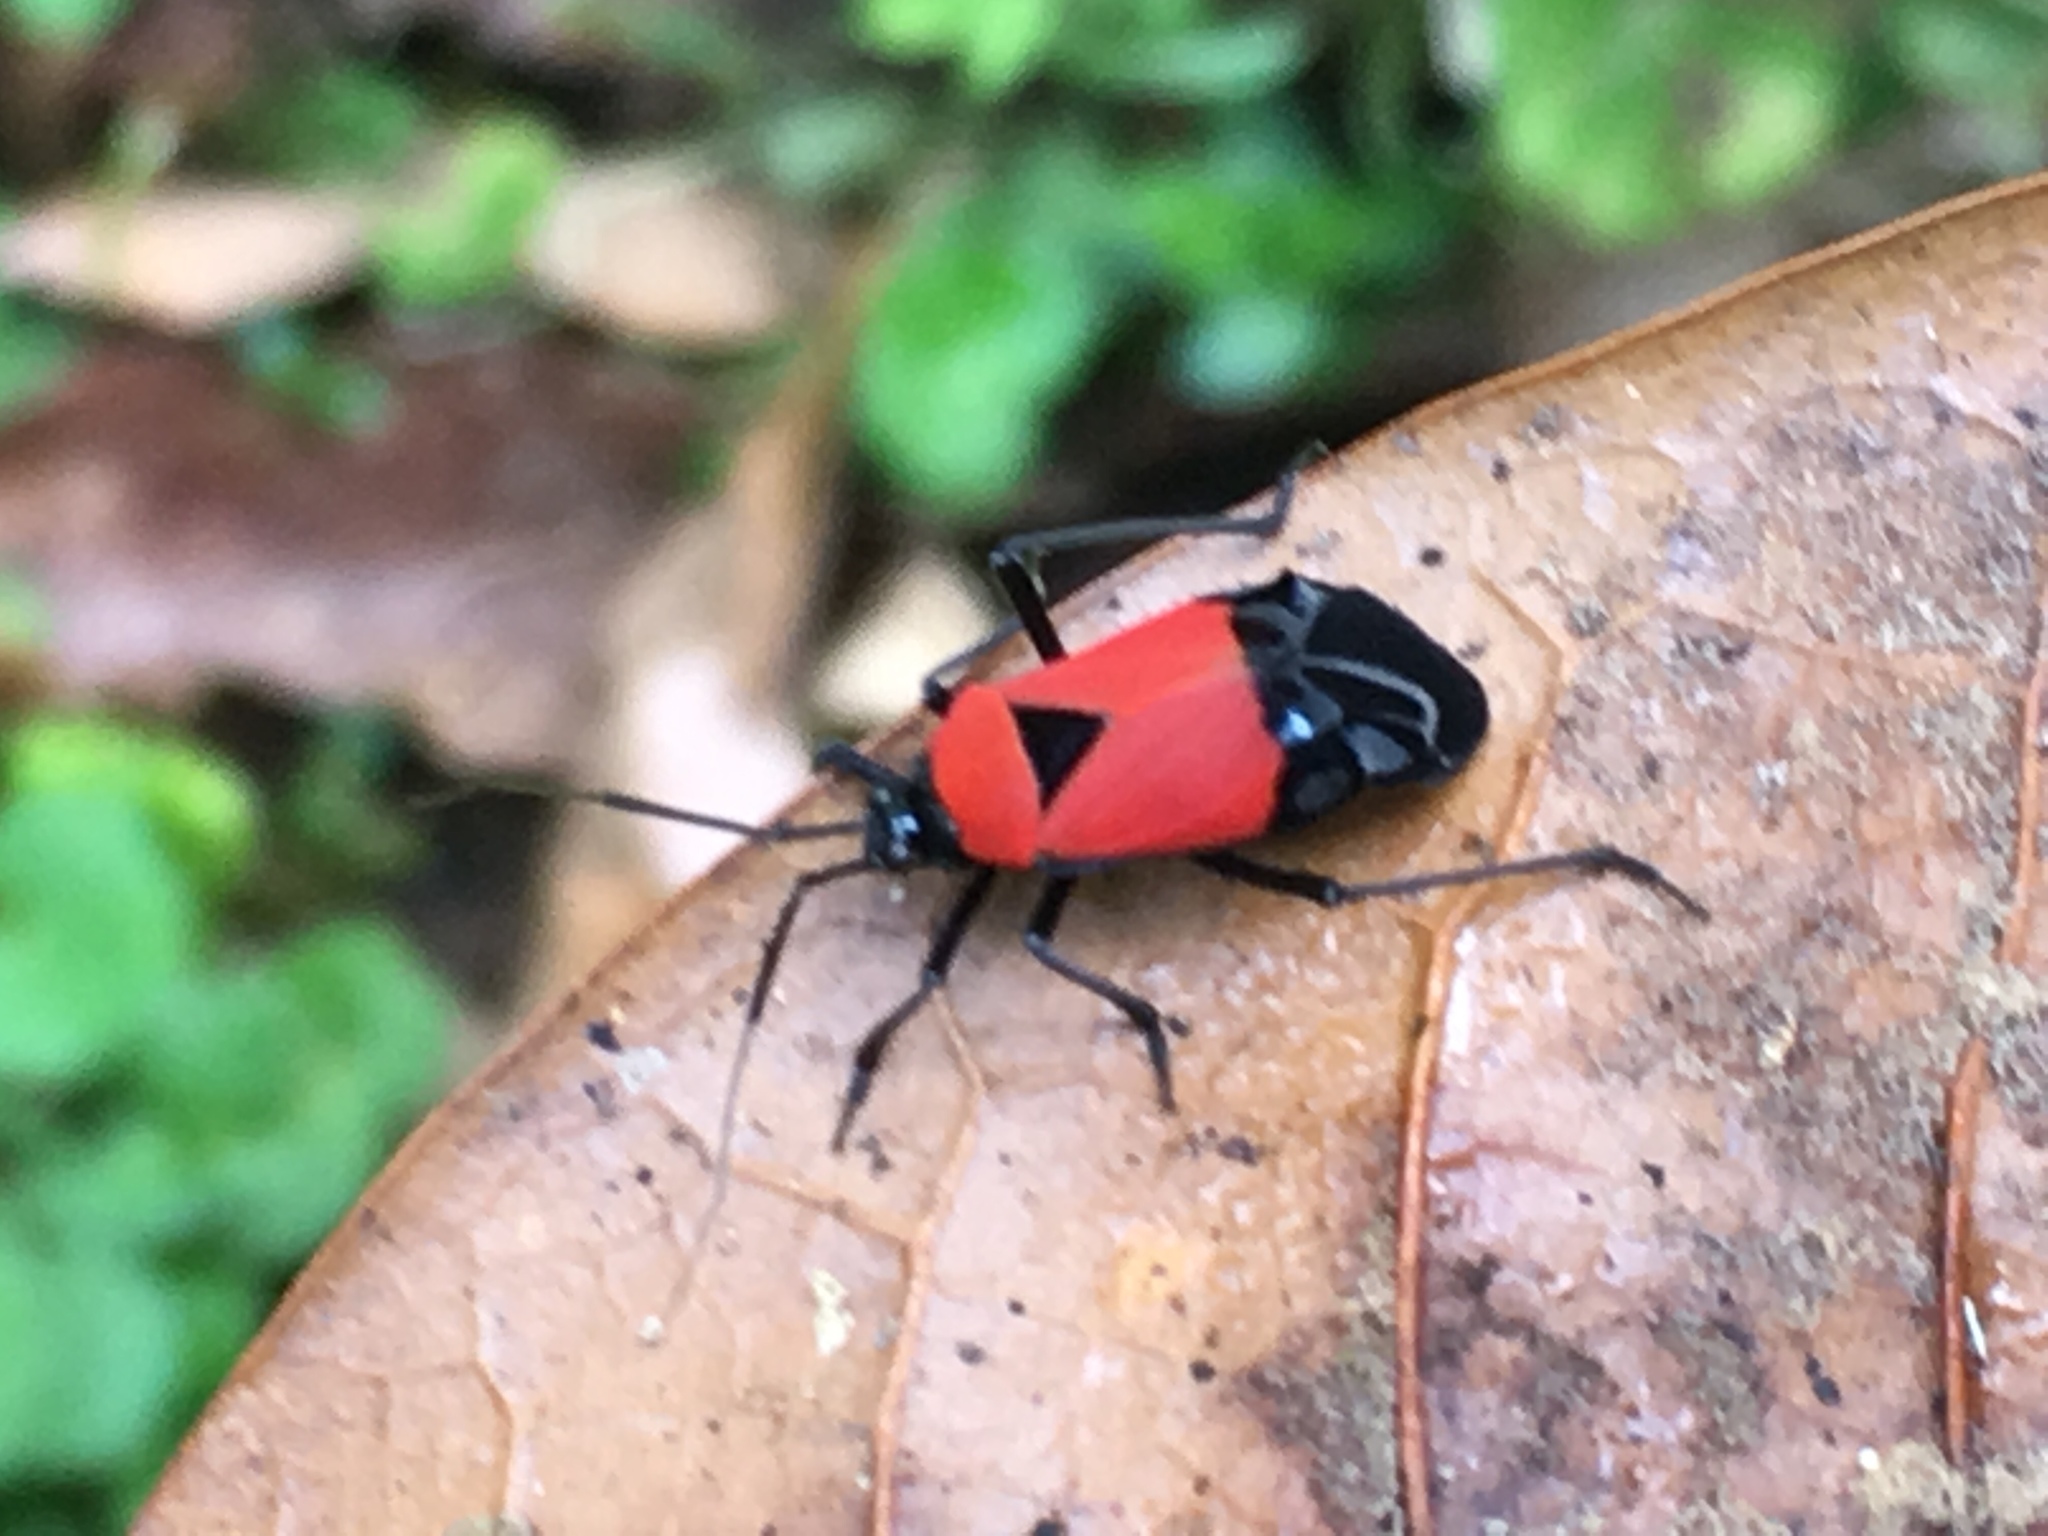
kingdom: Animalia
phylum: Arthropoda
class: Insecta
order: Hemiptera
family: Miridae
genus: Lampsophorus
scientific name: Lampsophorus caesareus
